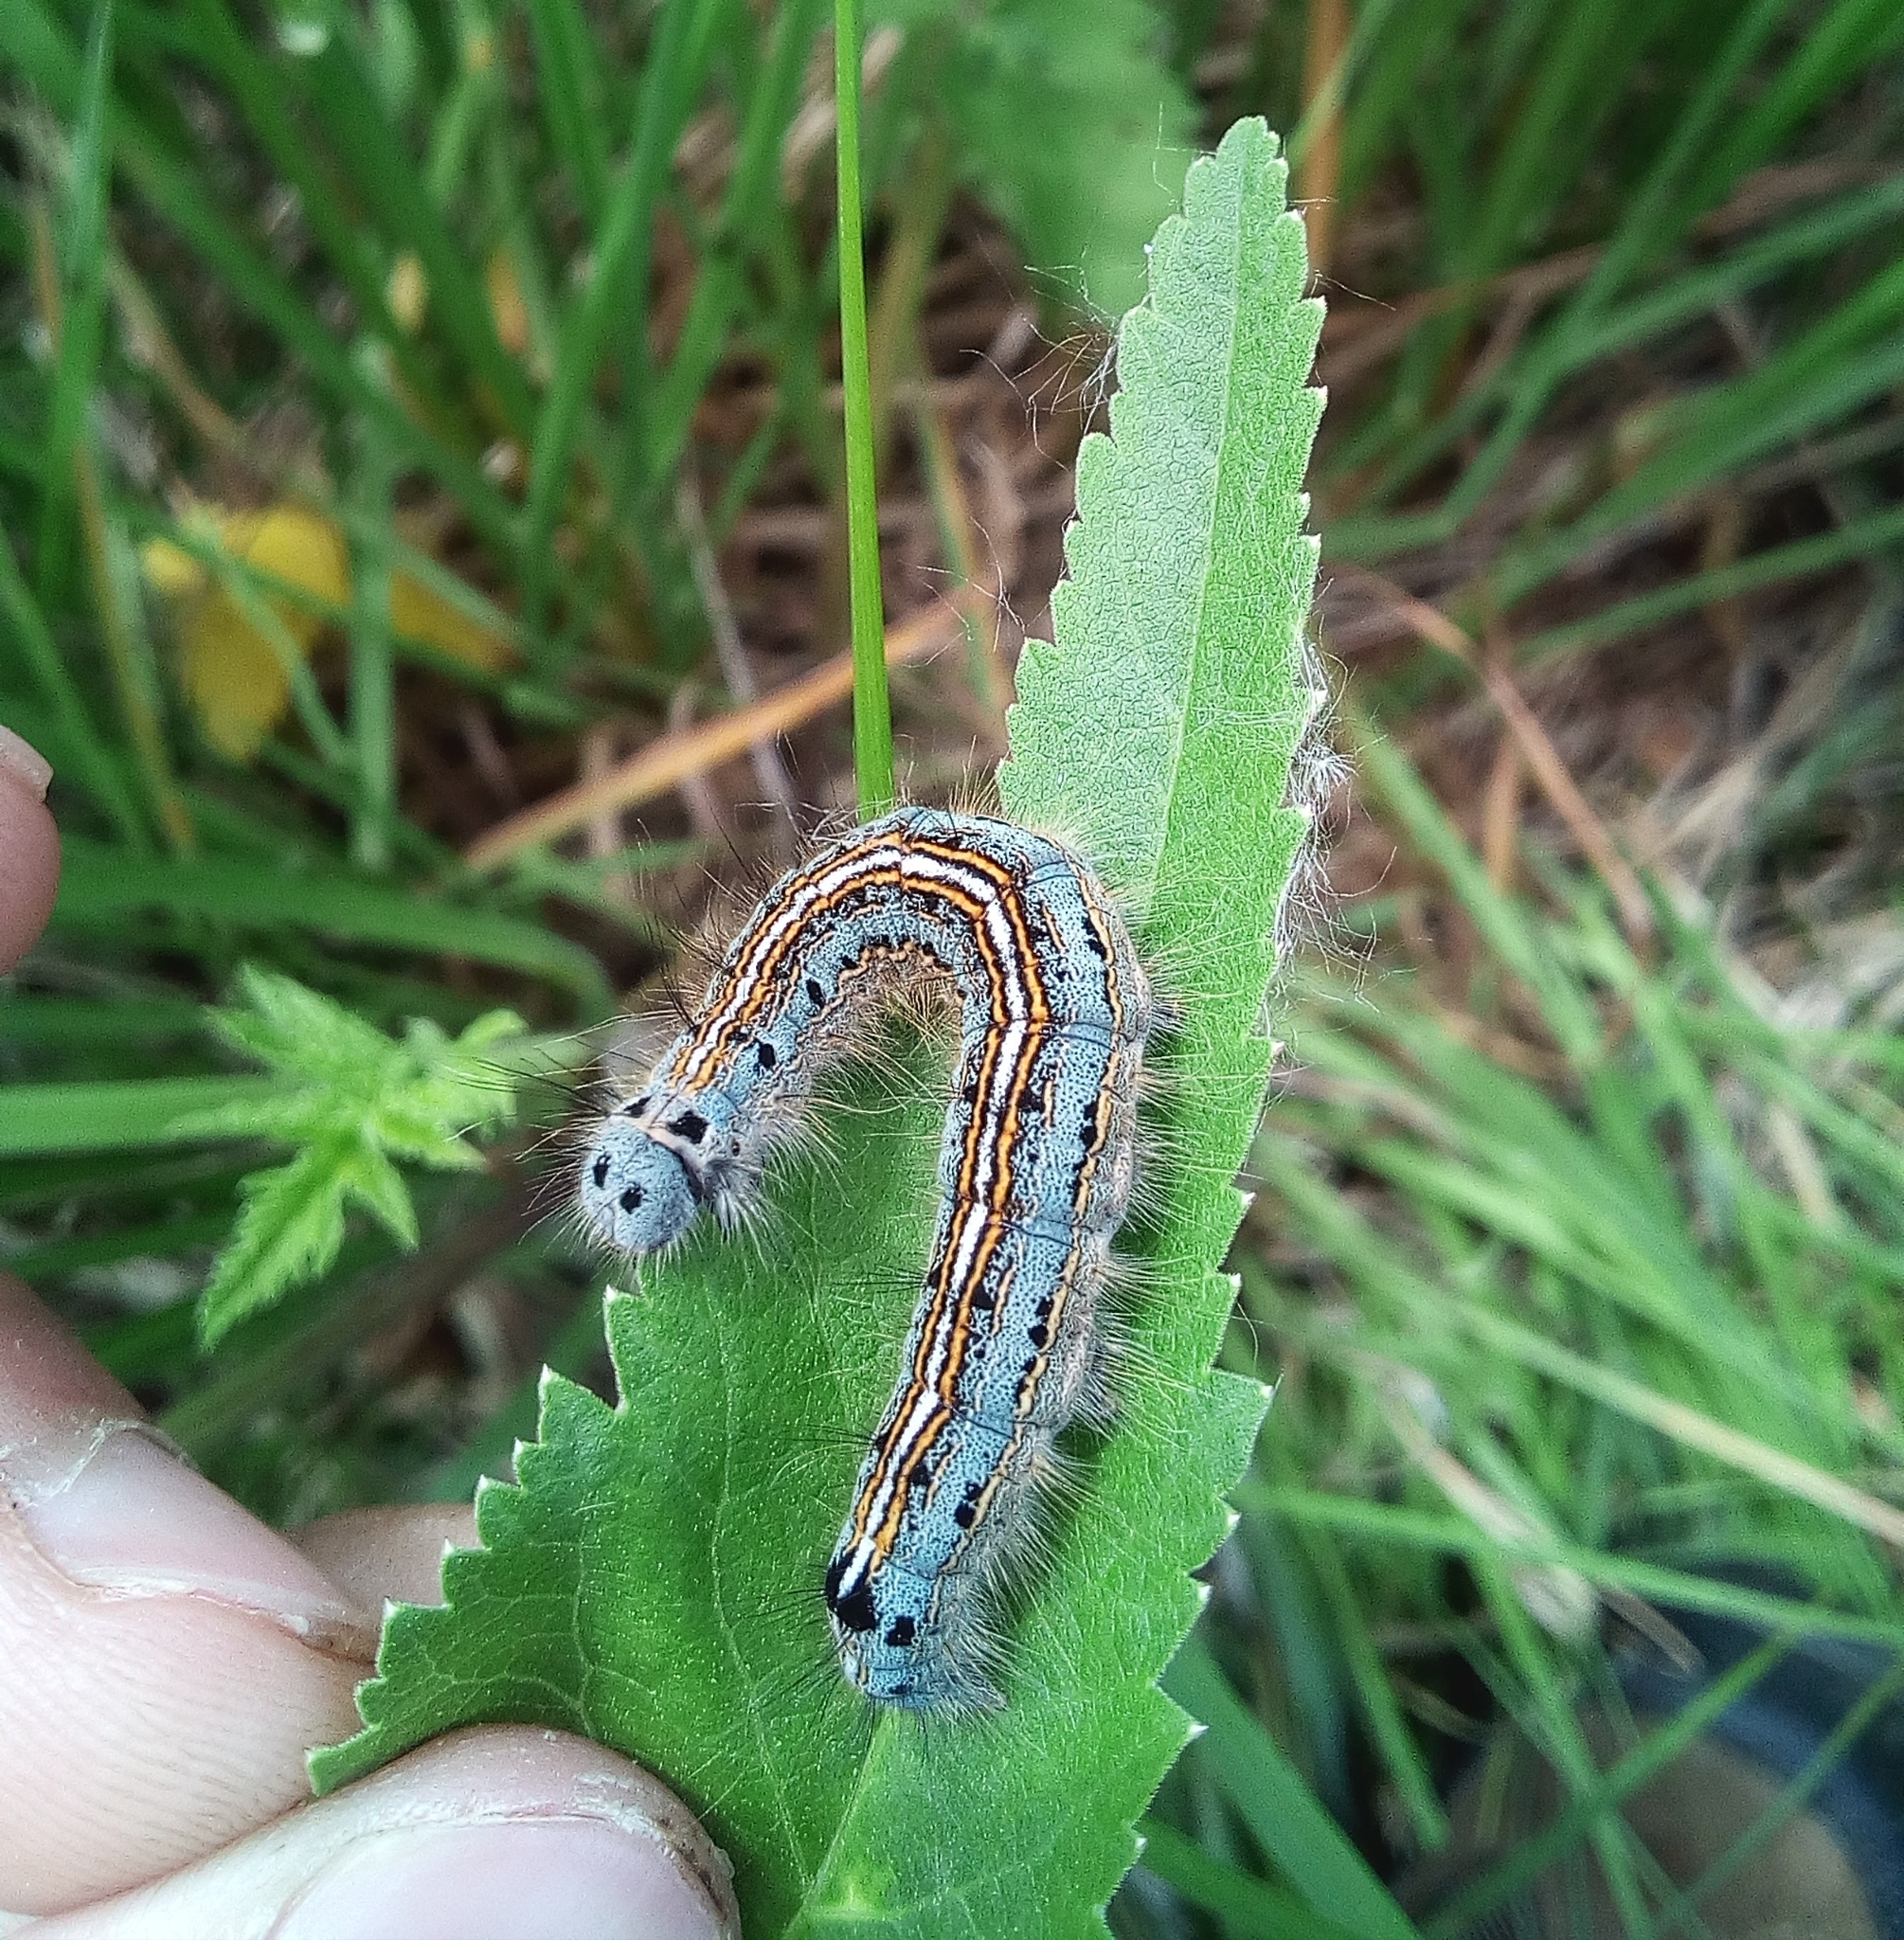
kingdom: Animalia
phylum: Arthropoda
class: Insecta
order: Lepidoptera
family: Lasiocampidae
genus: Malacosoma
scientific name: Malacosoma neustria
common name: The lackey
